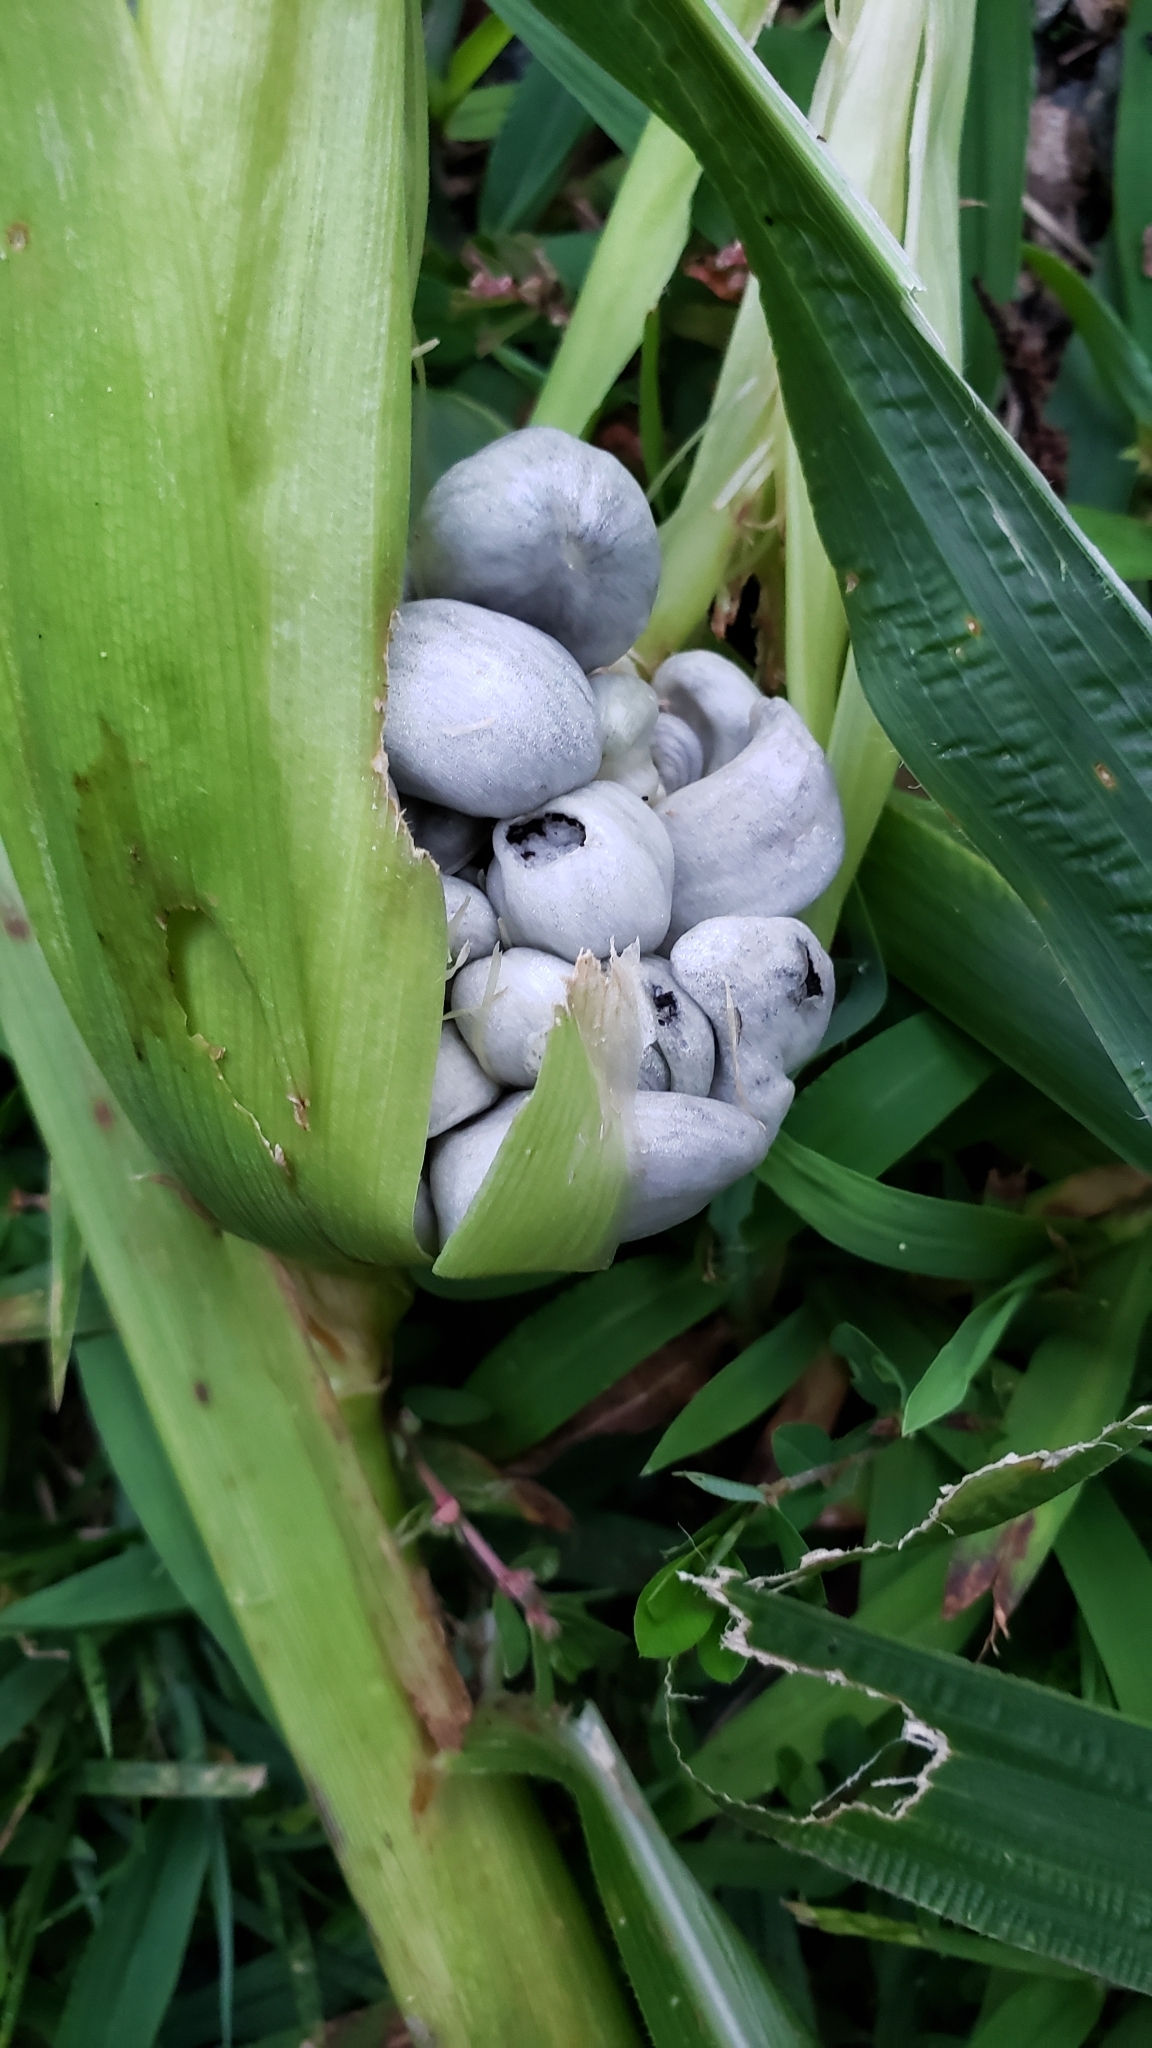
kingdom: Fungi
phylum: Basidiomycota
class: Ustilaginomycetes
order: Ustilaginales
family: Ustilaginaceae
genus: Mycosarcoma
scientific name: Mycosarcoma maydis
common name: Corn smut
